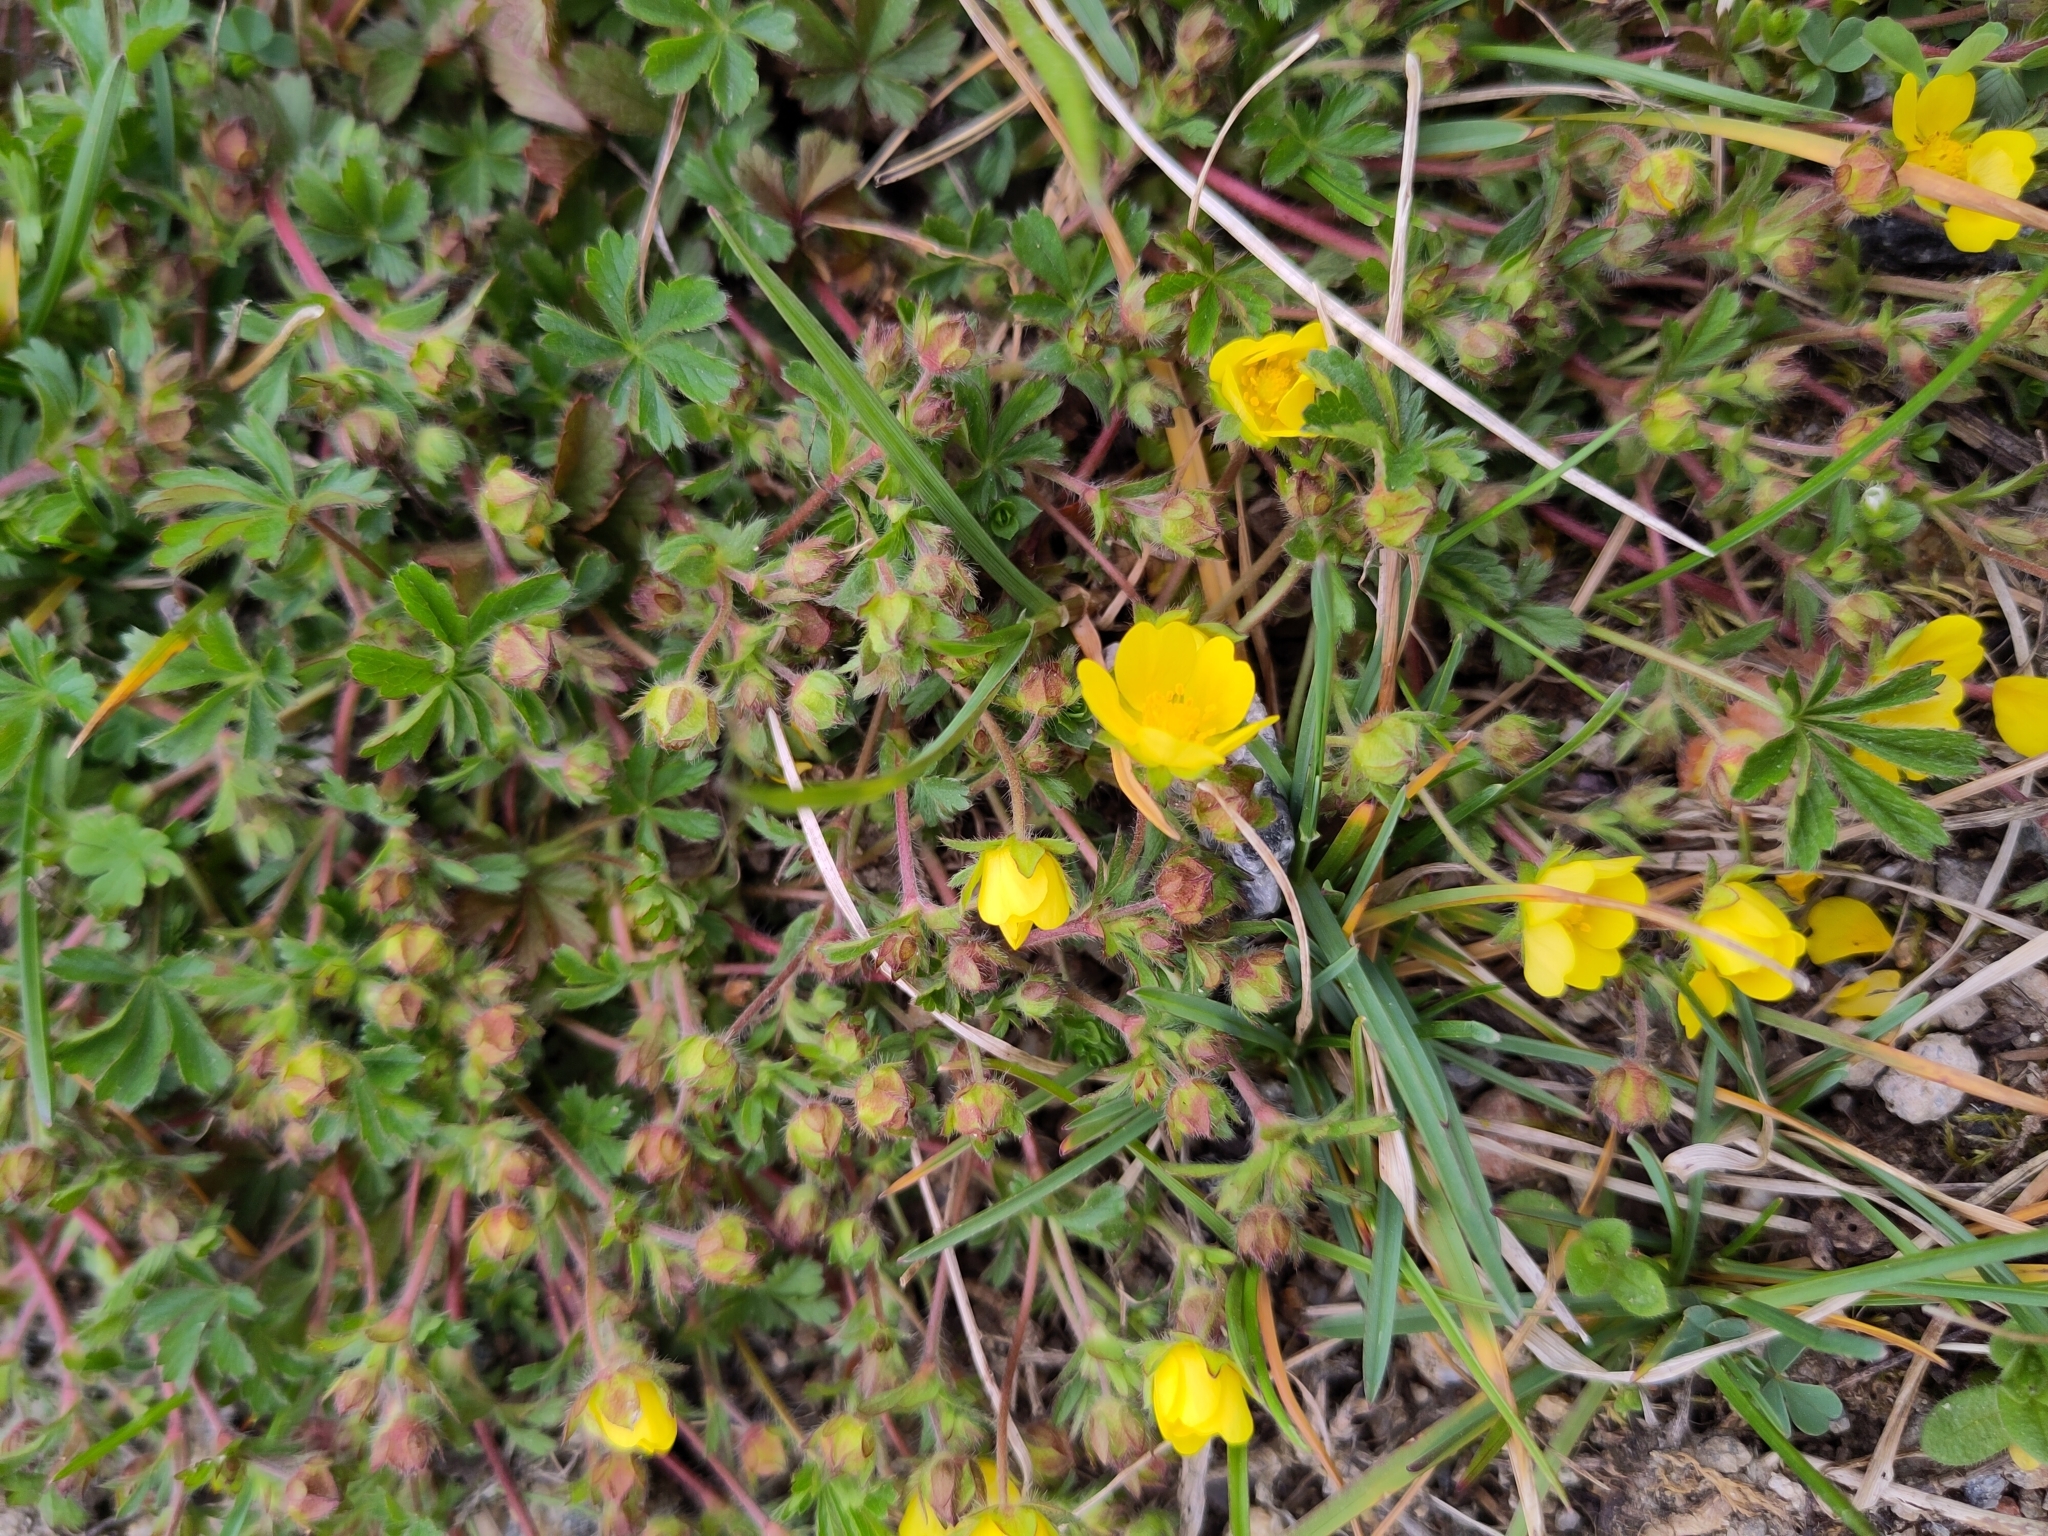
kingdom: Plantae
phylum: Tracheophyta
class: Magnoliopsida
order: Rosales
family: Rosaceae
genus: Potentilla
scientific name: Potentilla verna
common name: Spring cinquefoil
